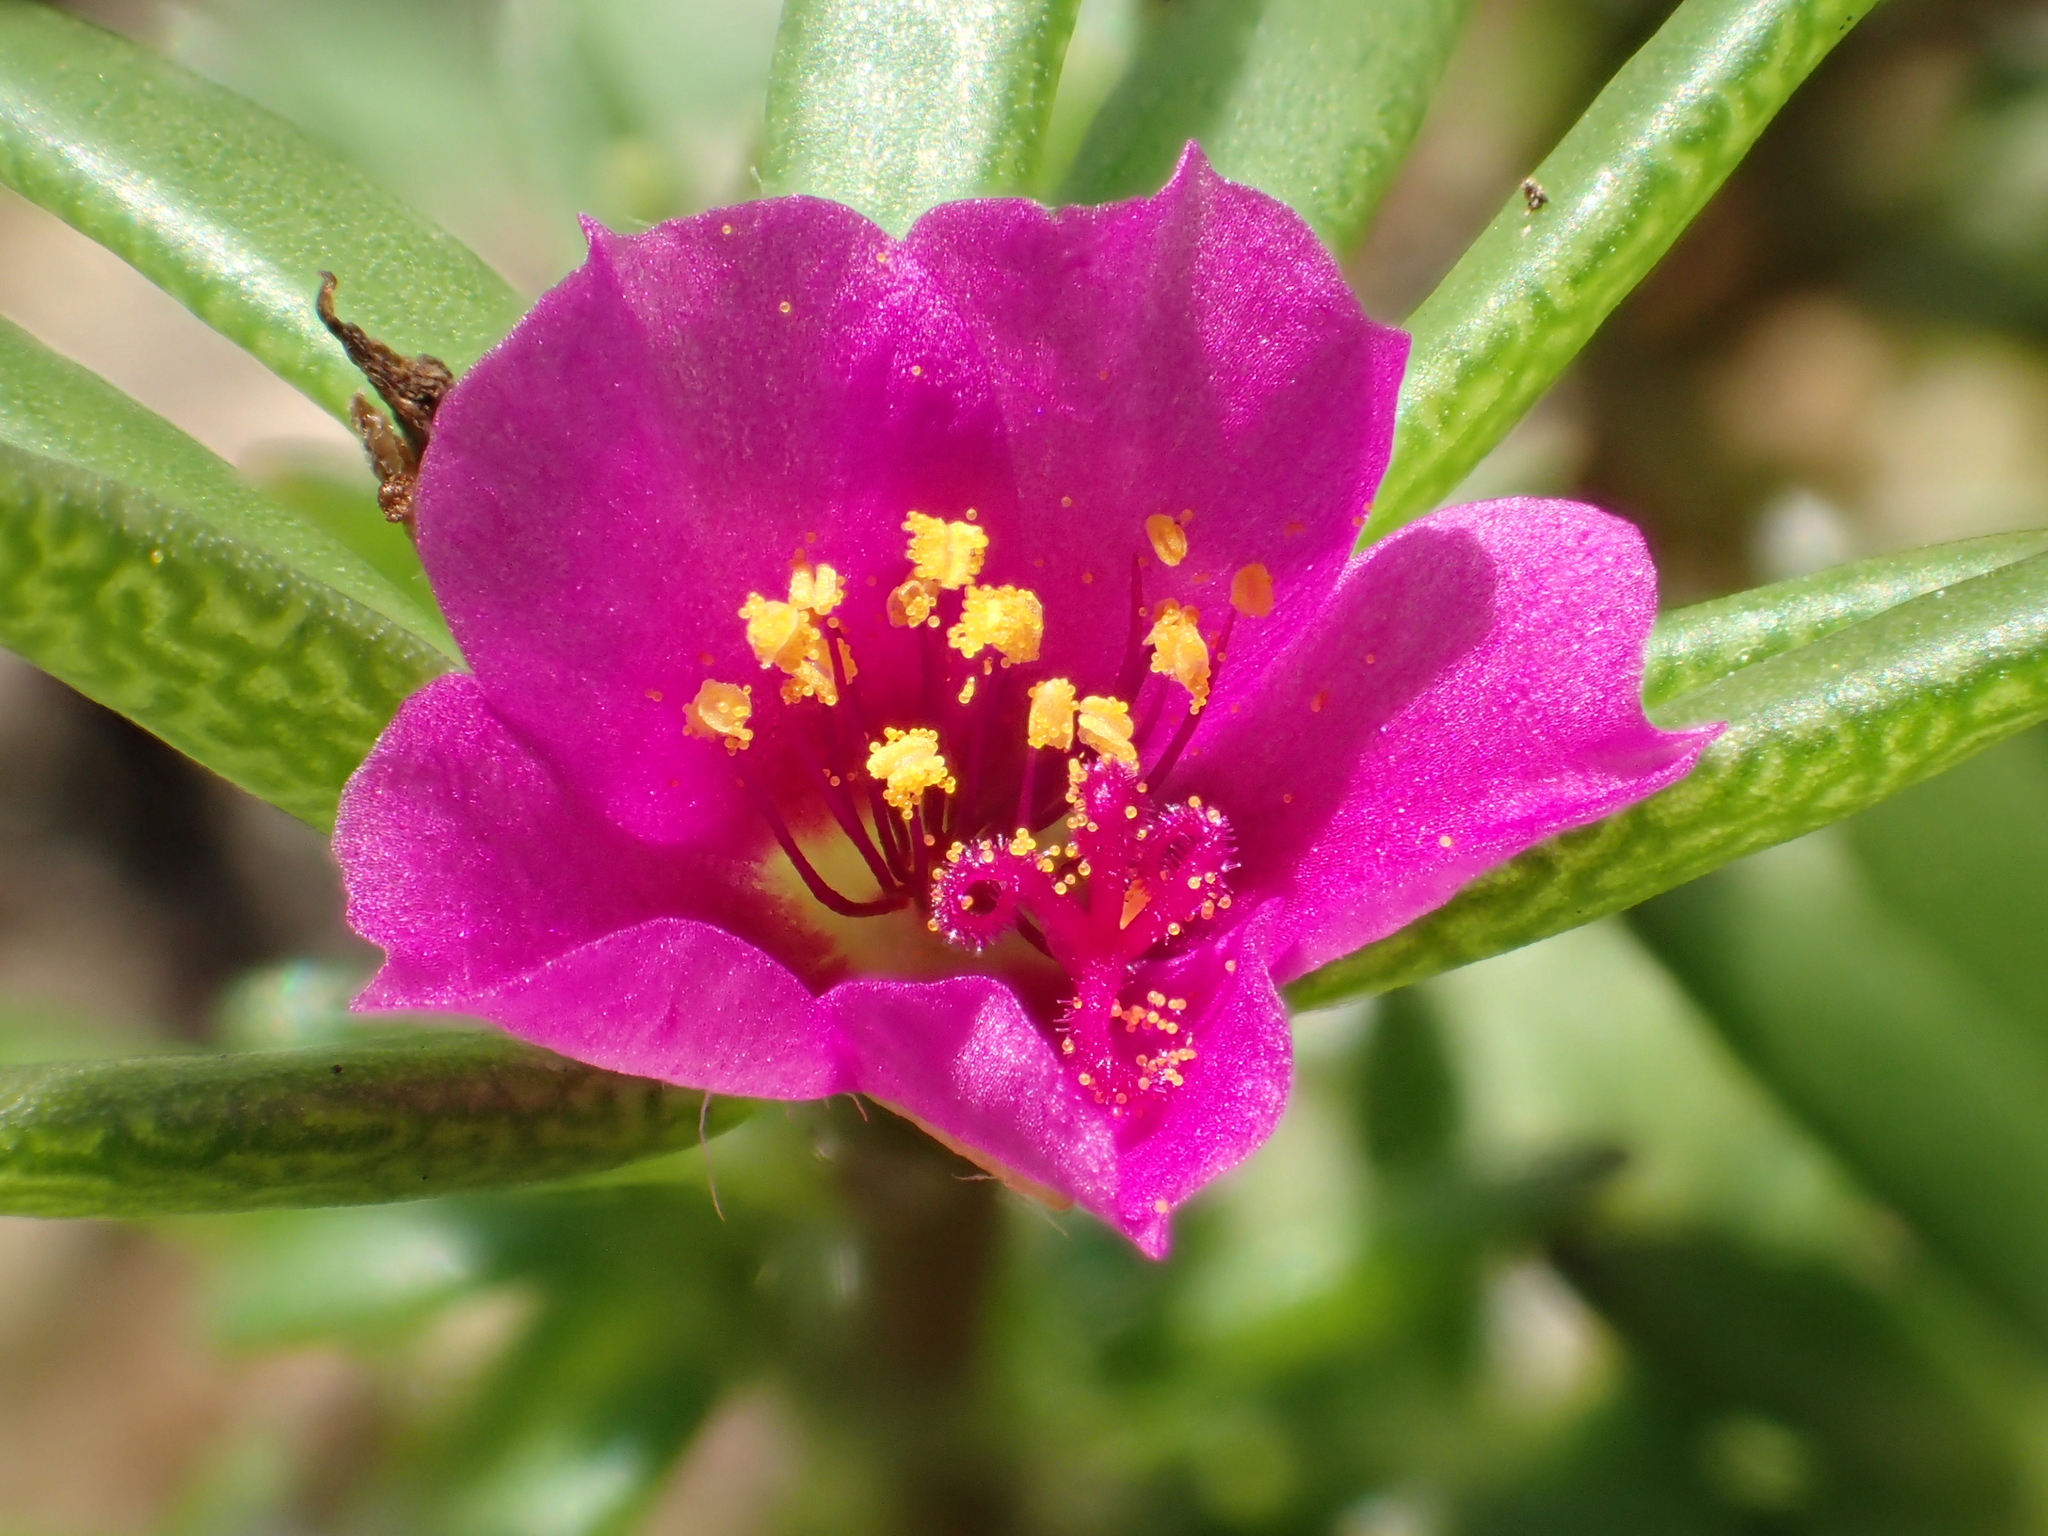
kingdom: Plantae
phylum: Tracheophyta
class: Magnoliopsida
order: Caryophyllales
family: Portulacaceae
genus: Portulaca
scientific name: Portulaca pilosa
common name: Kiss me quick
